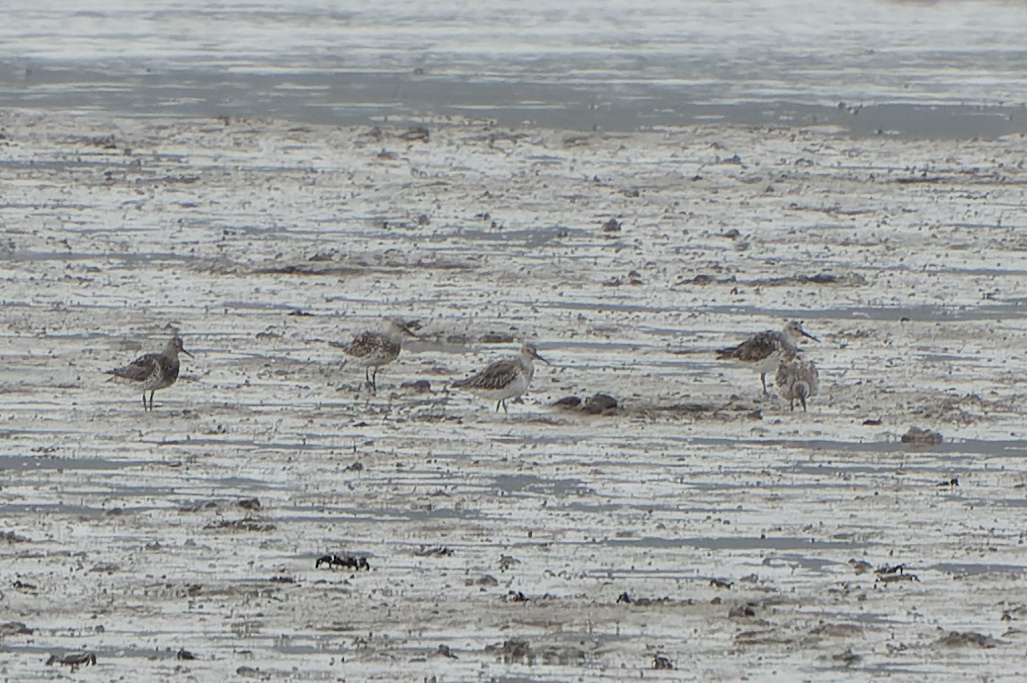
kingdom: Animalia
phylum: Chordata
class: Aves
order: Charadriiformes
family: Scolopacidae
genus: Calidris
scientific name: Calidris tenuirostris
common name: Great knot
